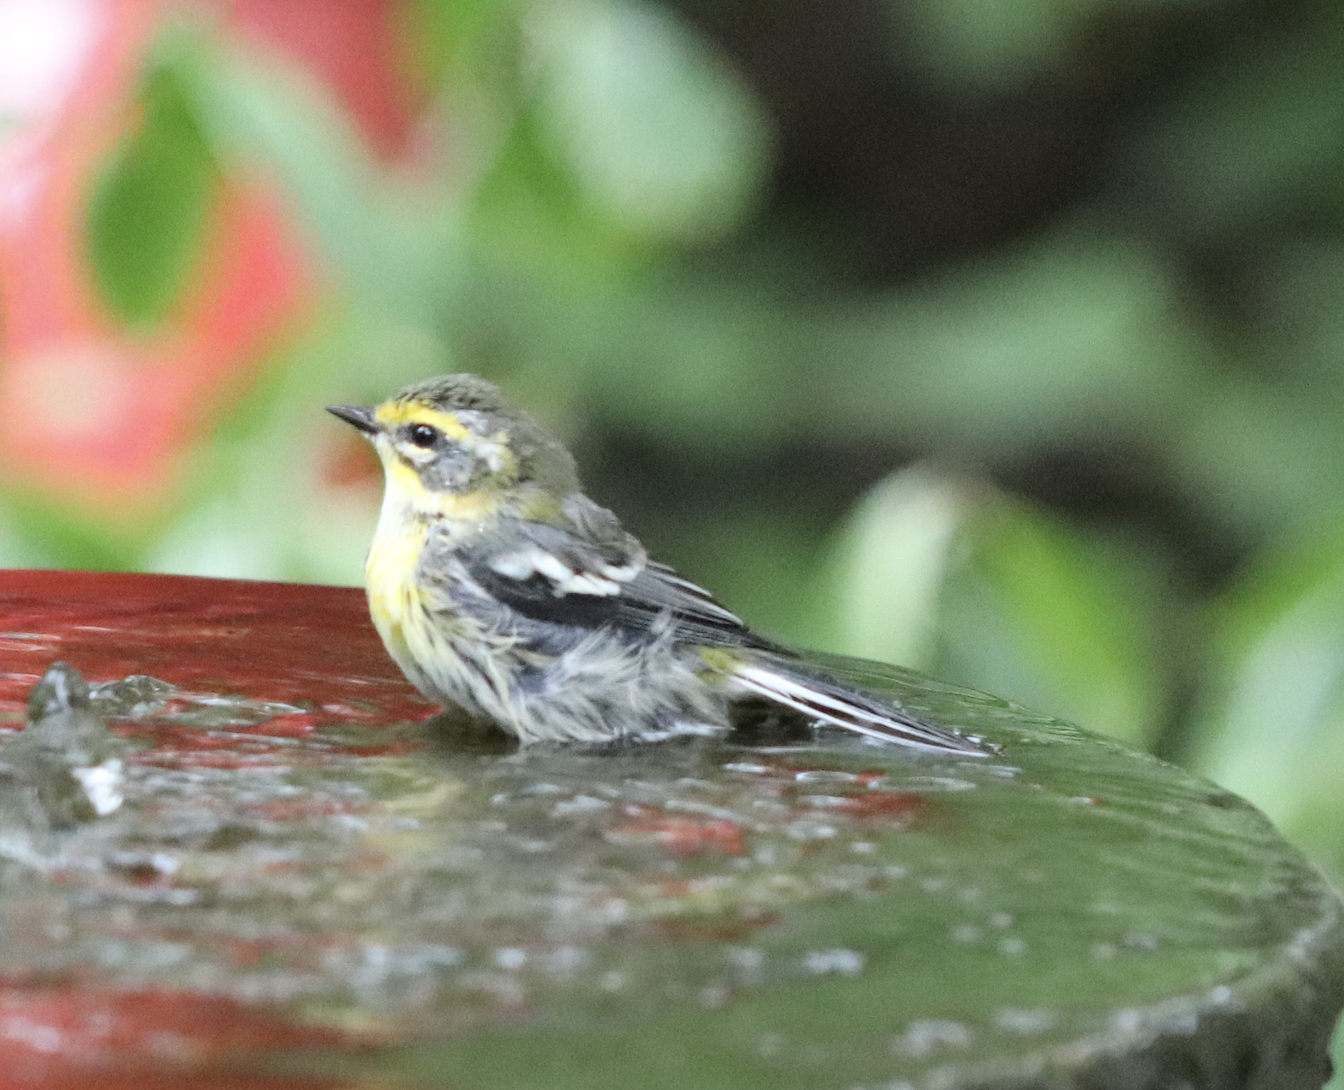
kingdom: Animalia
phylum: Chordata
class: Aves
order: Passeriformes
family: Parulidae
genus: Setophaga
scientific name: Setophaga townsendi
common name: Townsend's warbler
